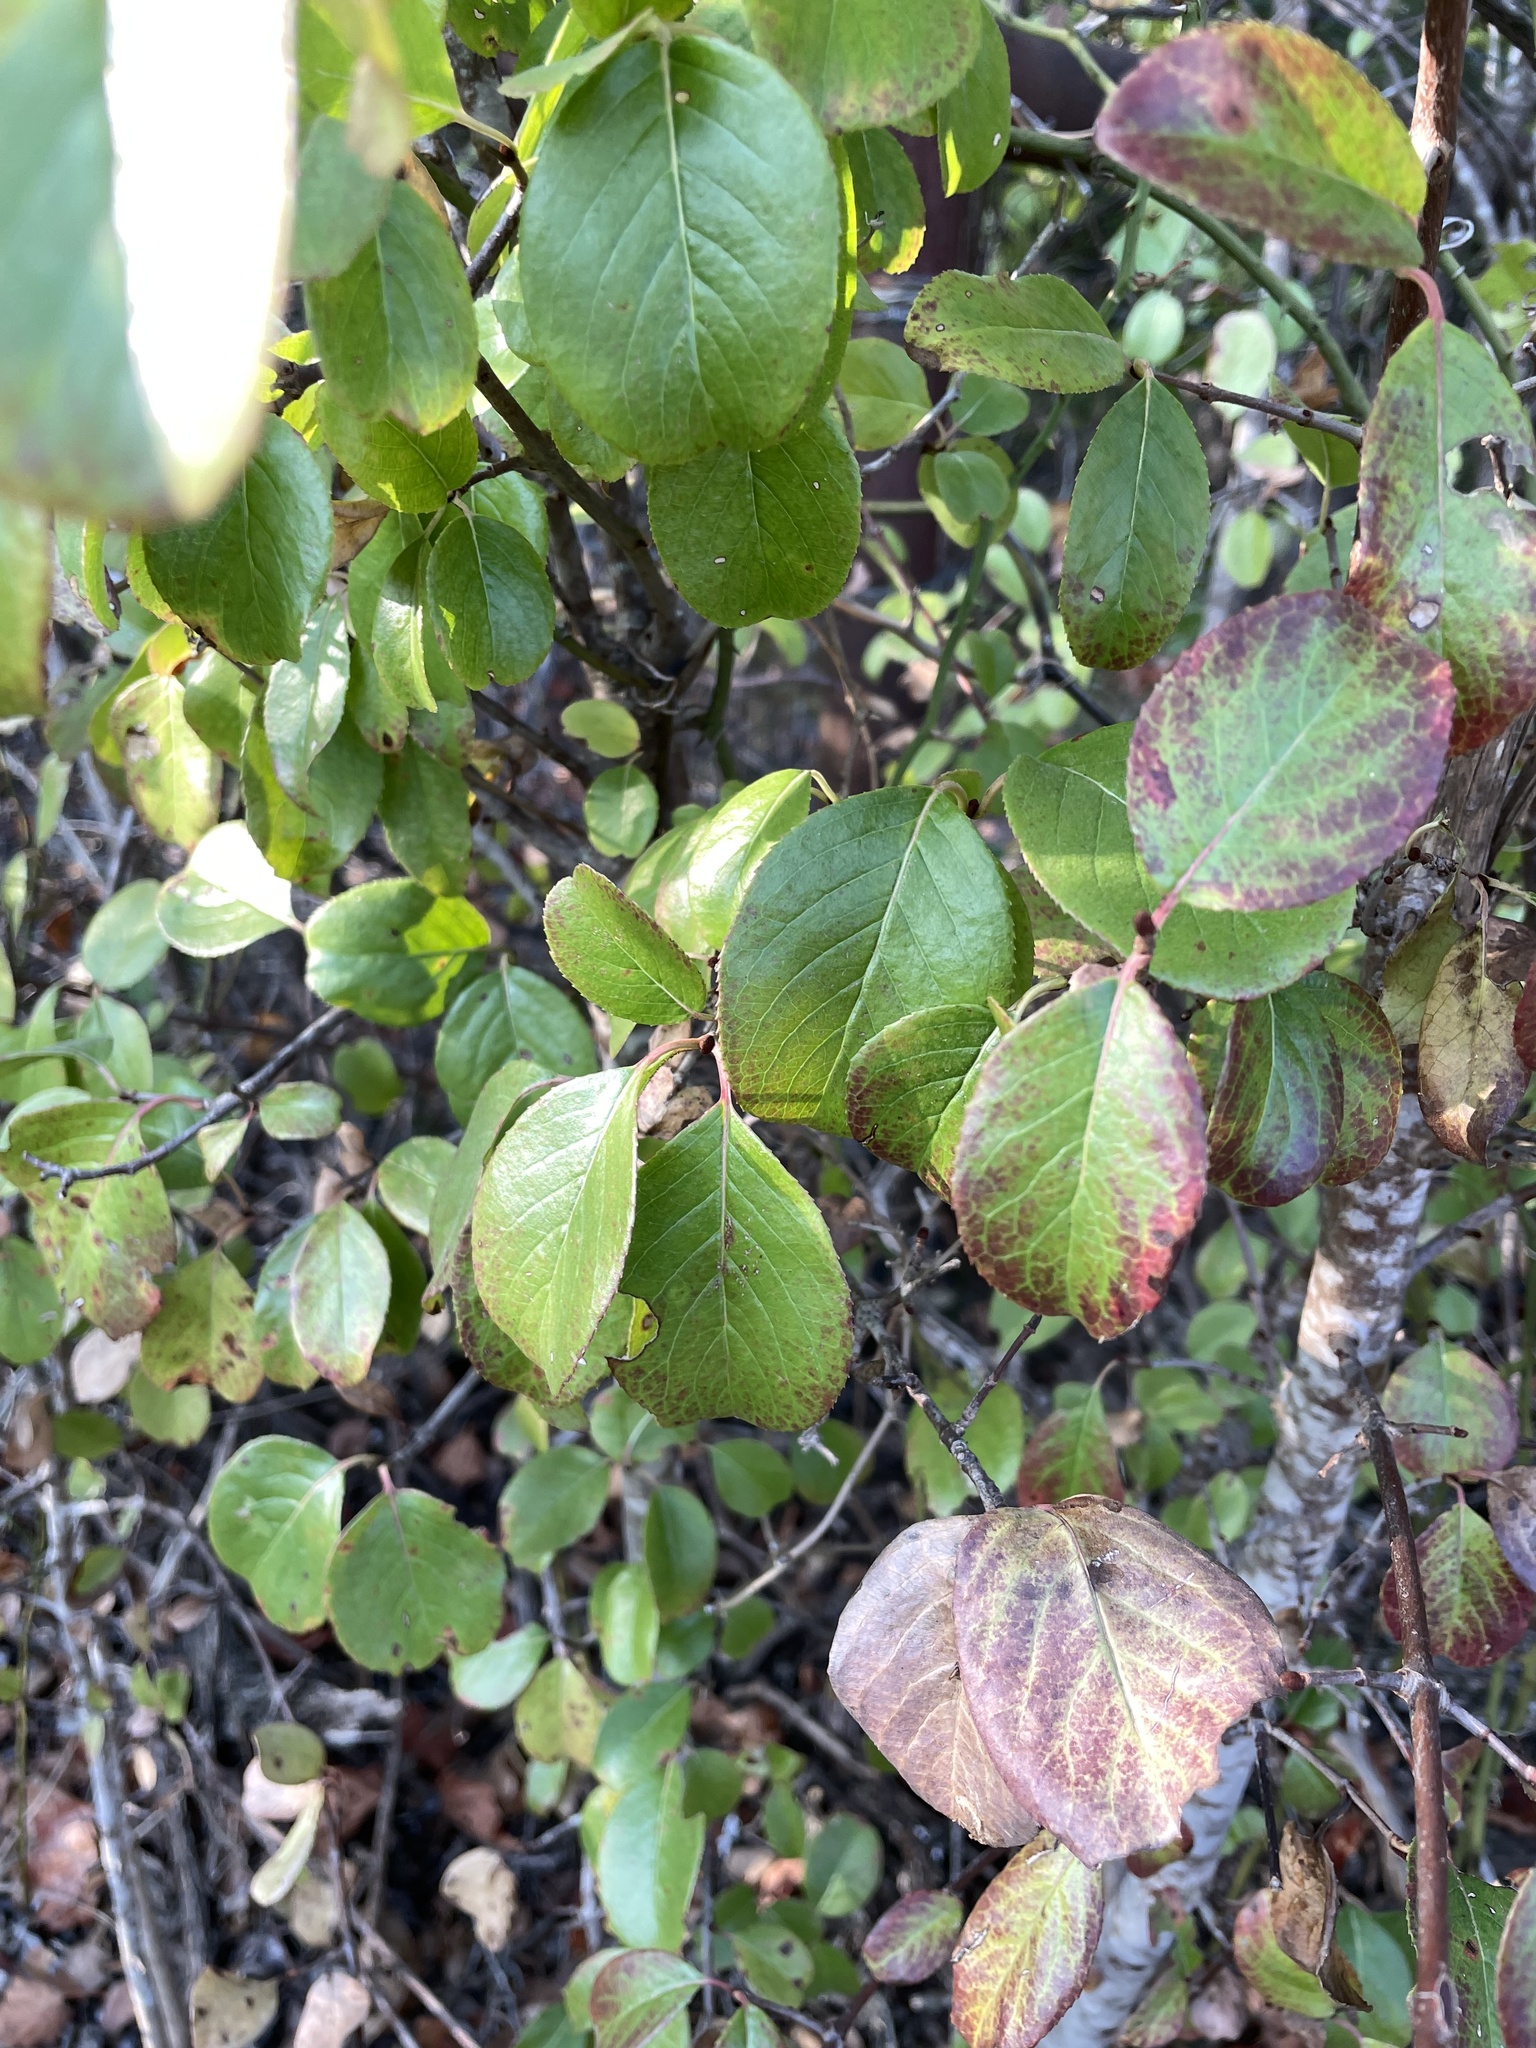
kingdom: Plantae
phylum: Tracheophyta
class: Magnoliopsida
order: Dipsacales
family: Viburnaceae
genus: Viburnum
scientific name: Viburnum rufidulum
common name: Blue haw
